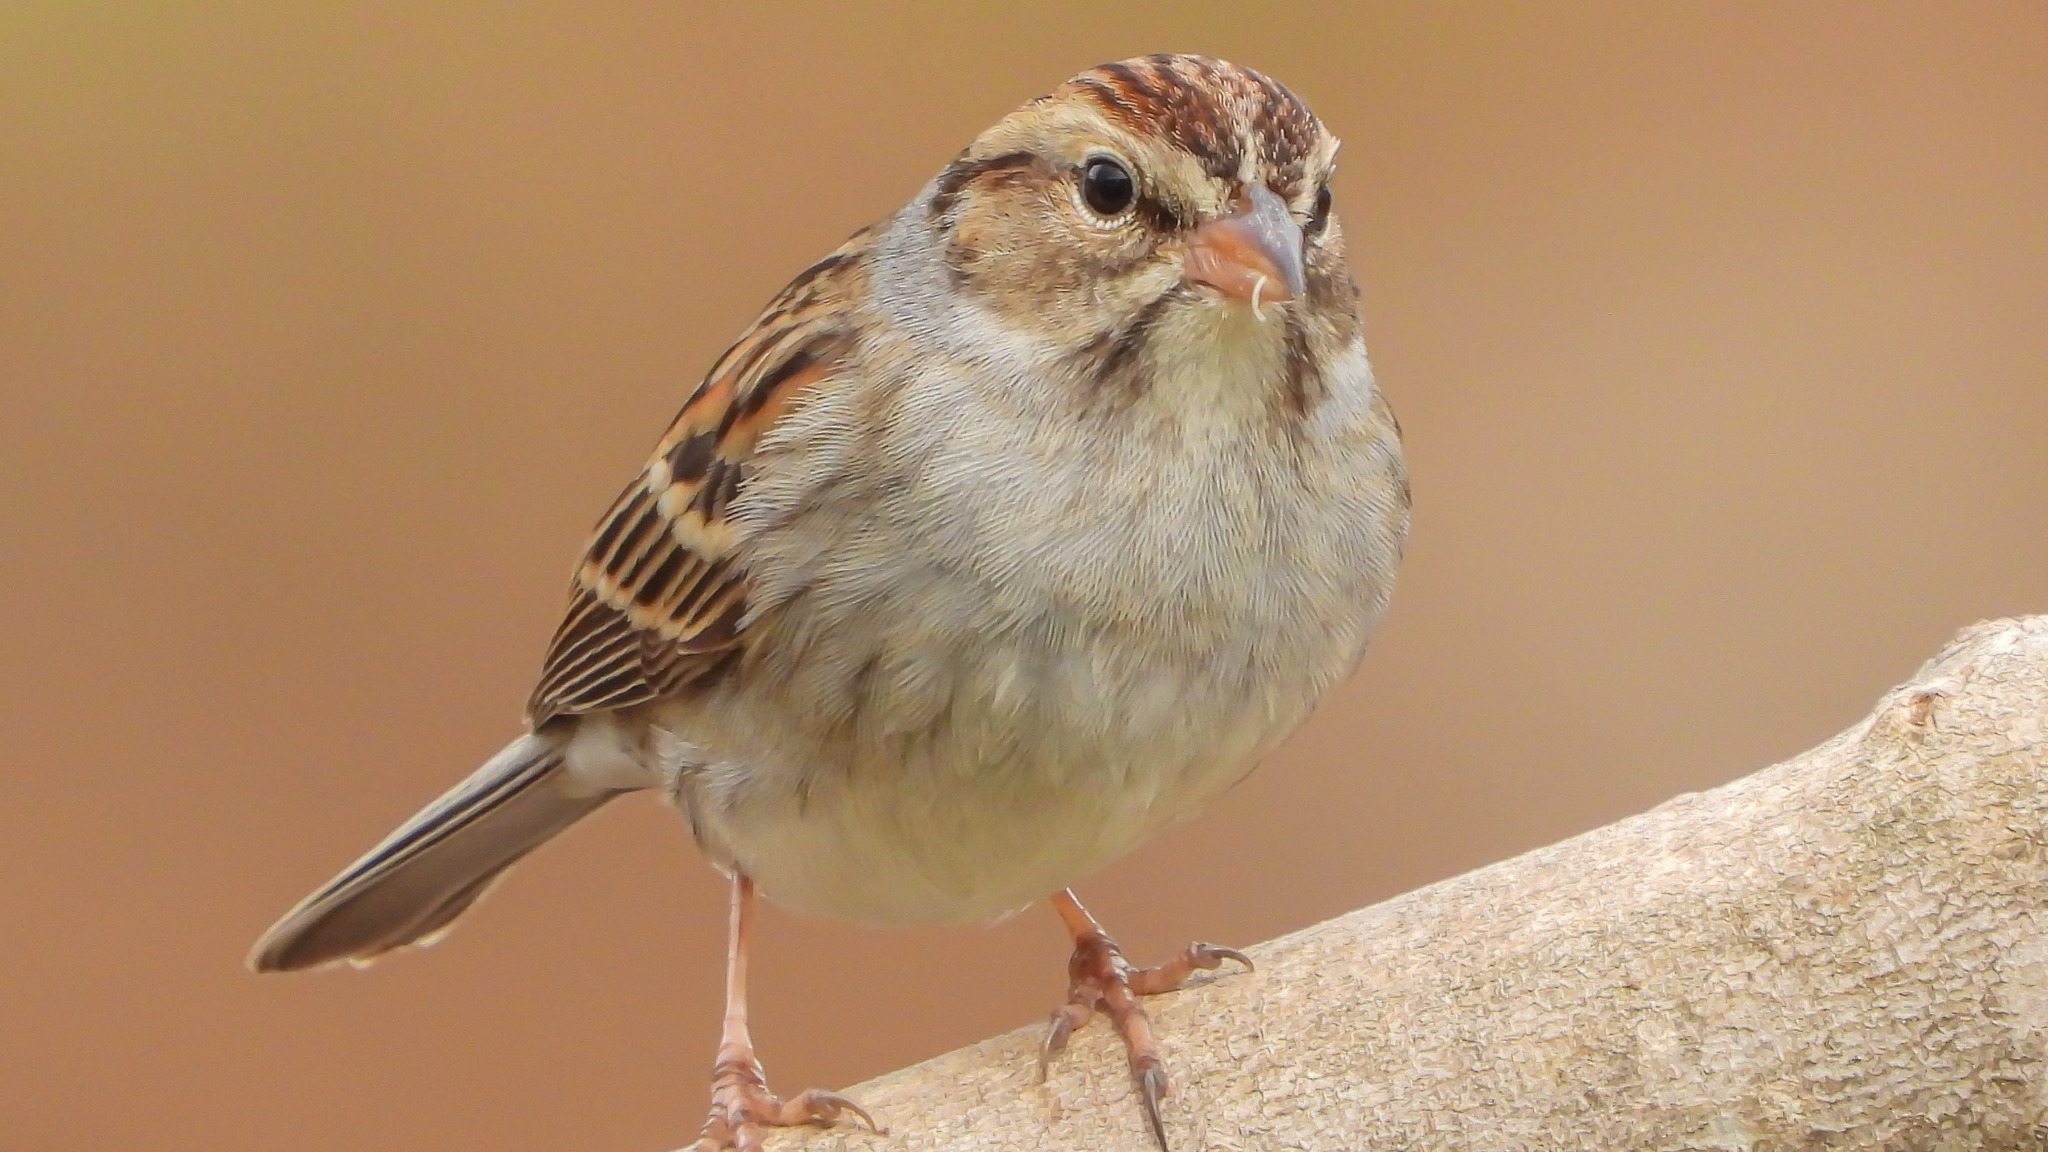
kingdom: Animalia
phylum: Chordata
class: Aves
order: Passeriformes
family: Passerellidae
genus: Spizella
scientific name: Spizella passerina
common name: Chipping sparrow
